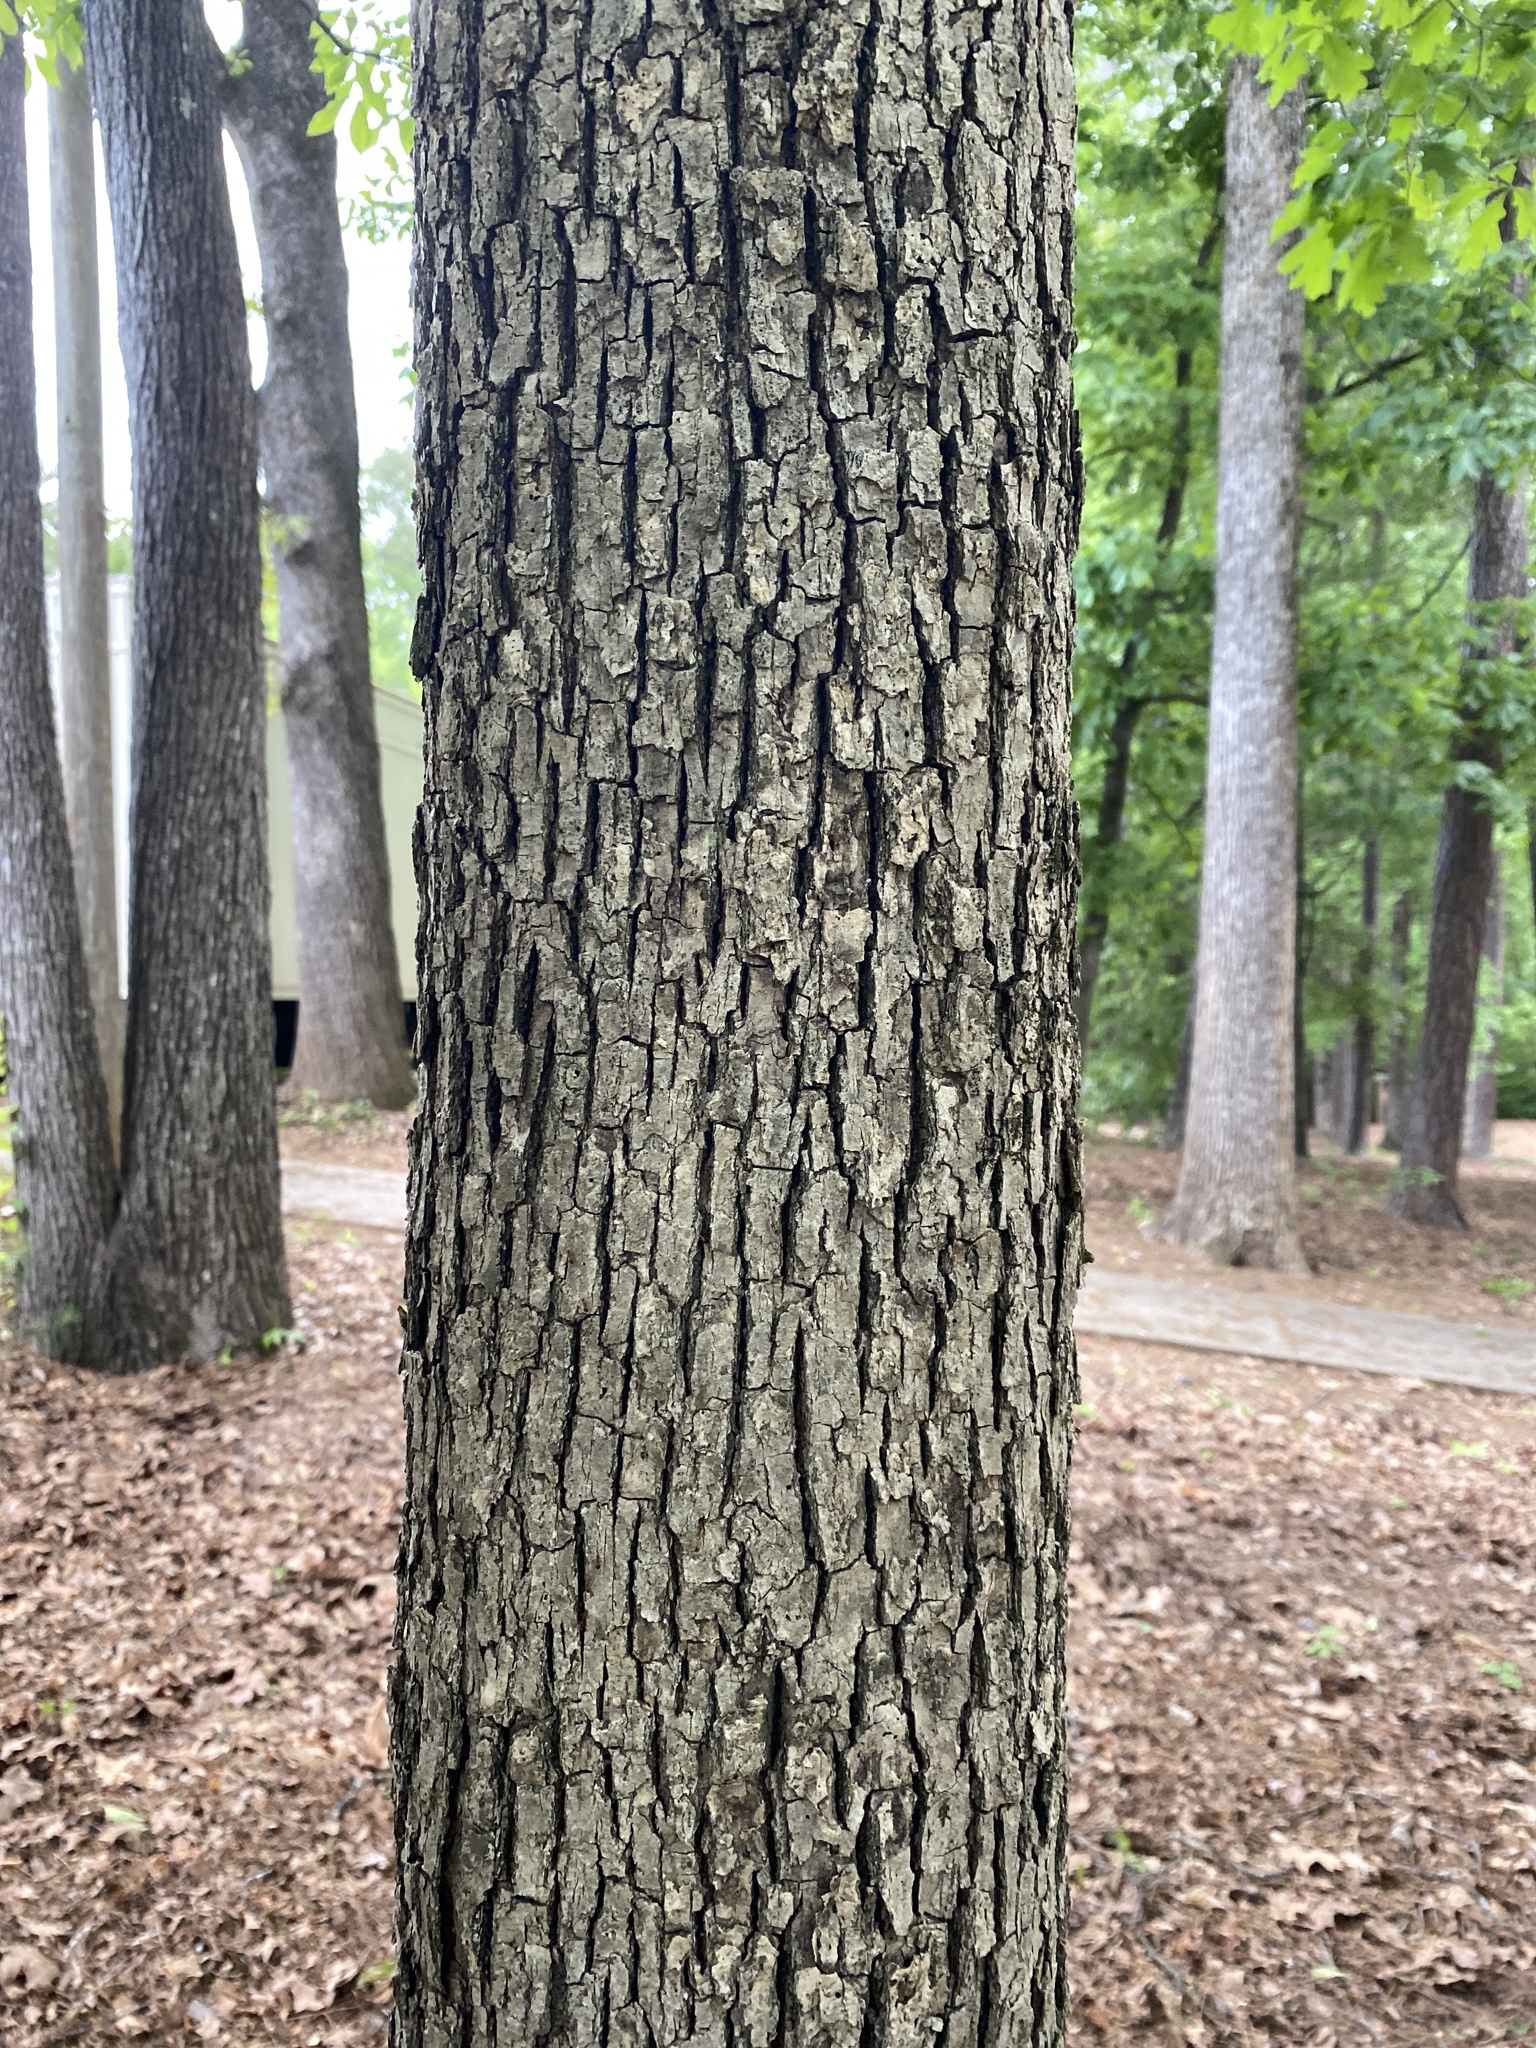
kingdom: Plantae
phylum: Tracheophyta
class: Magnoliopsida
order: Fagales
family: Fagaceae
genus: Quercus
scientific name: Quercus alba
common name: White oak
